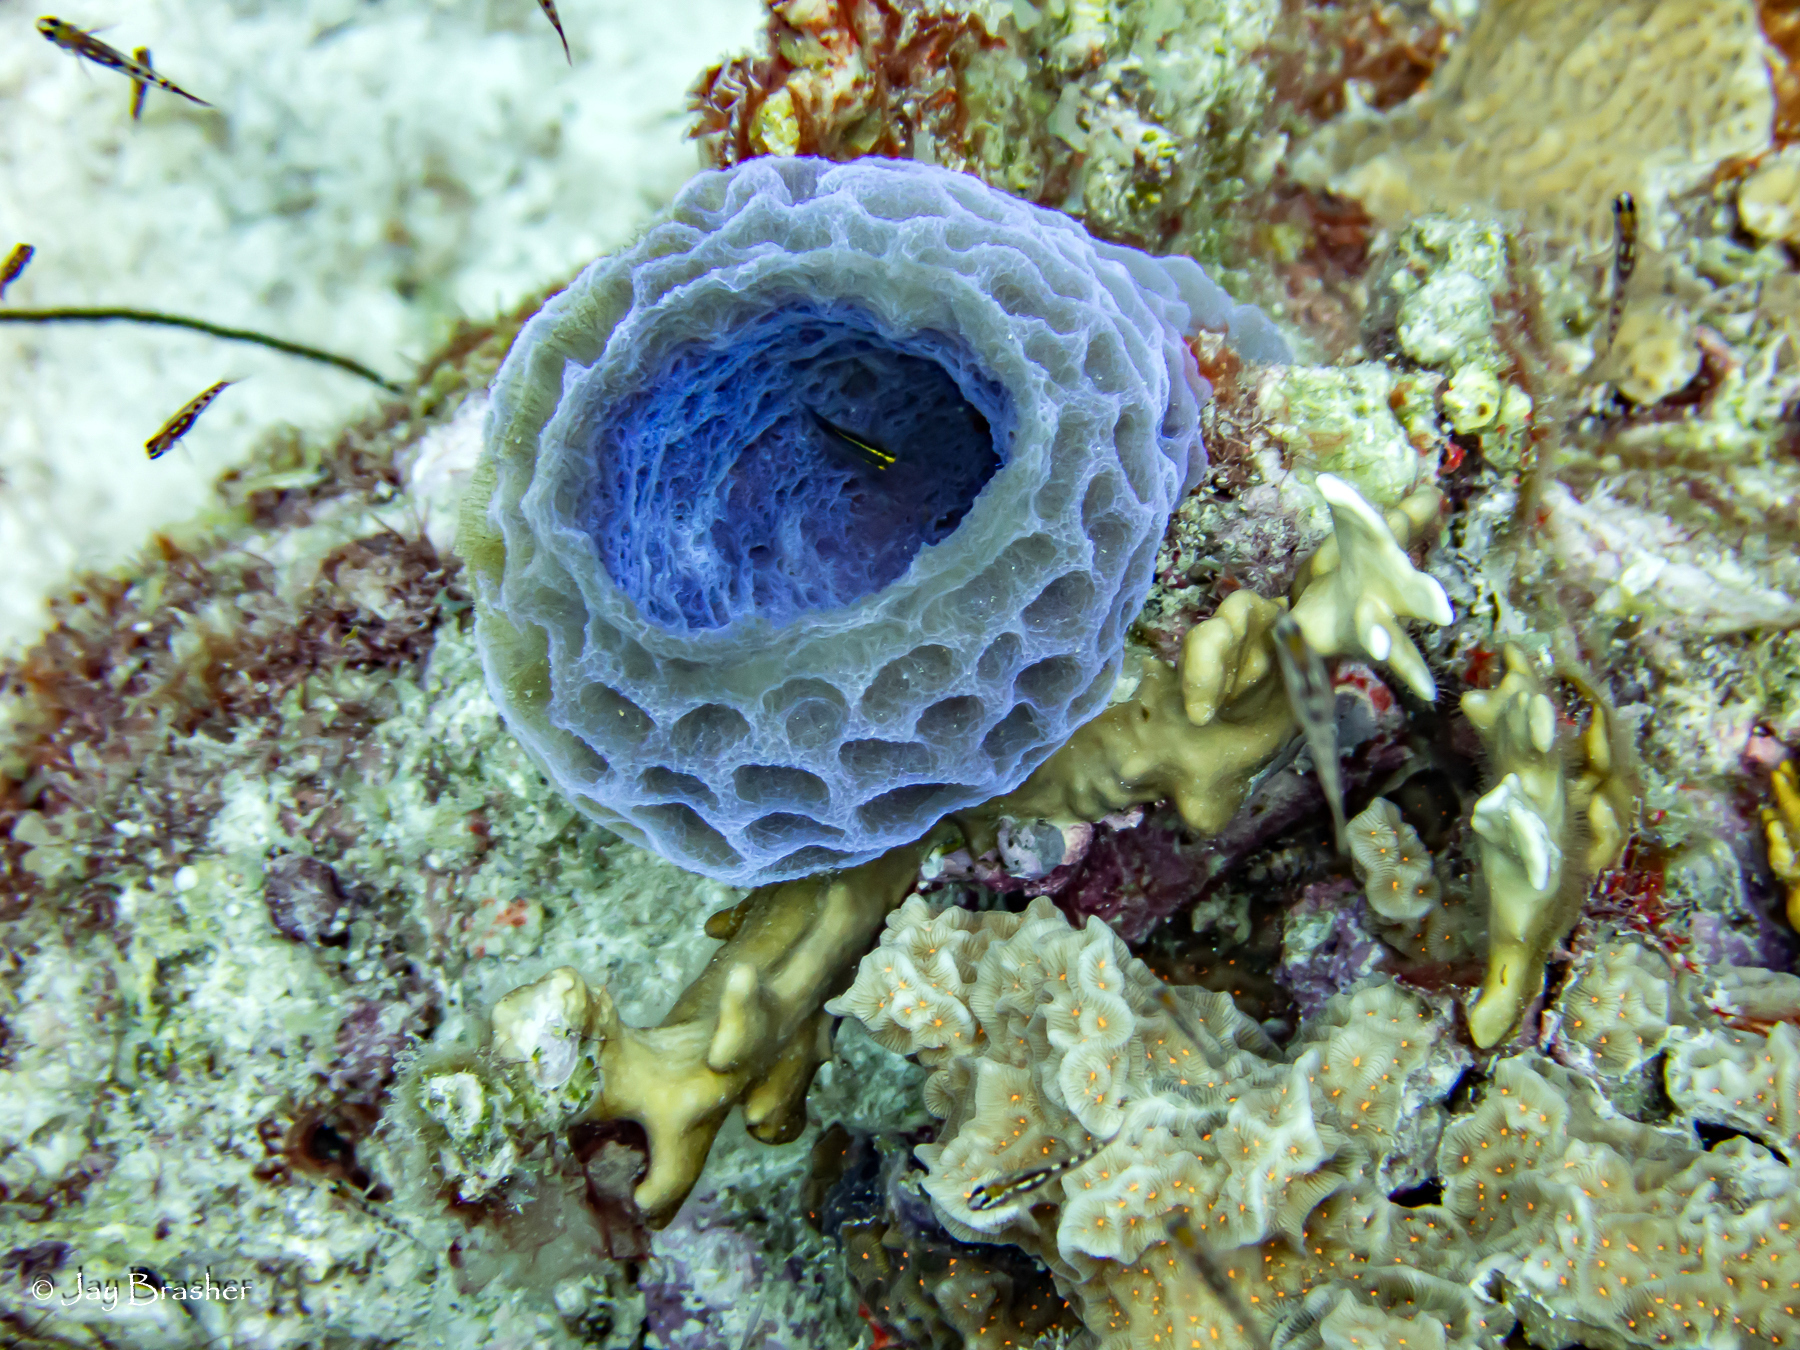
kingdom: Animalia
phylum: Porifera
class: Demospongiae
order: Haplosclerida
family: Callyspongiidae
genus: Callyspongia
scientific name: Callyspongia plicifera
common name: Azure vase sponge
